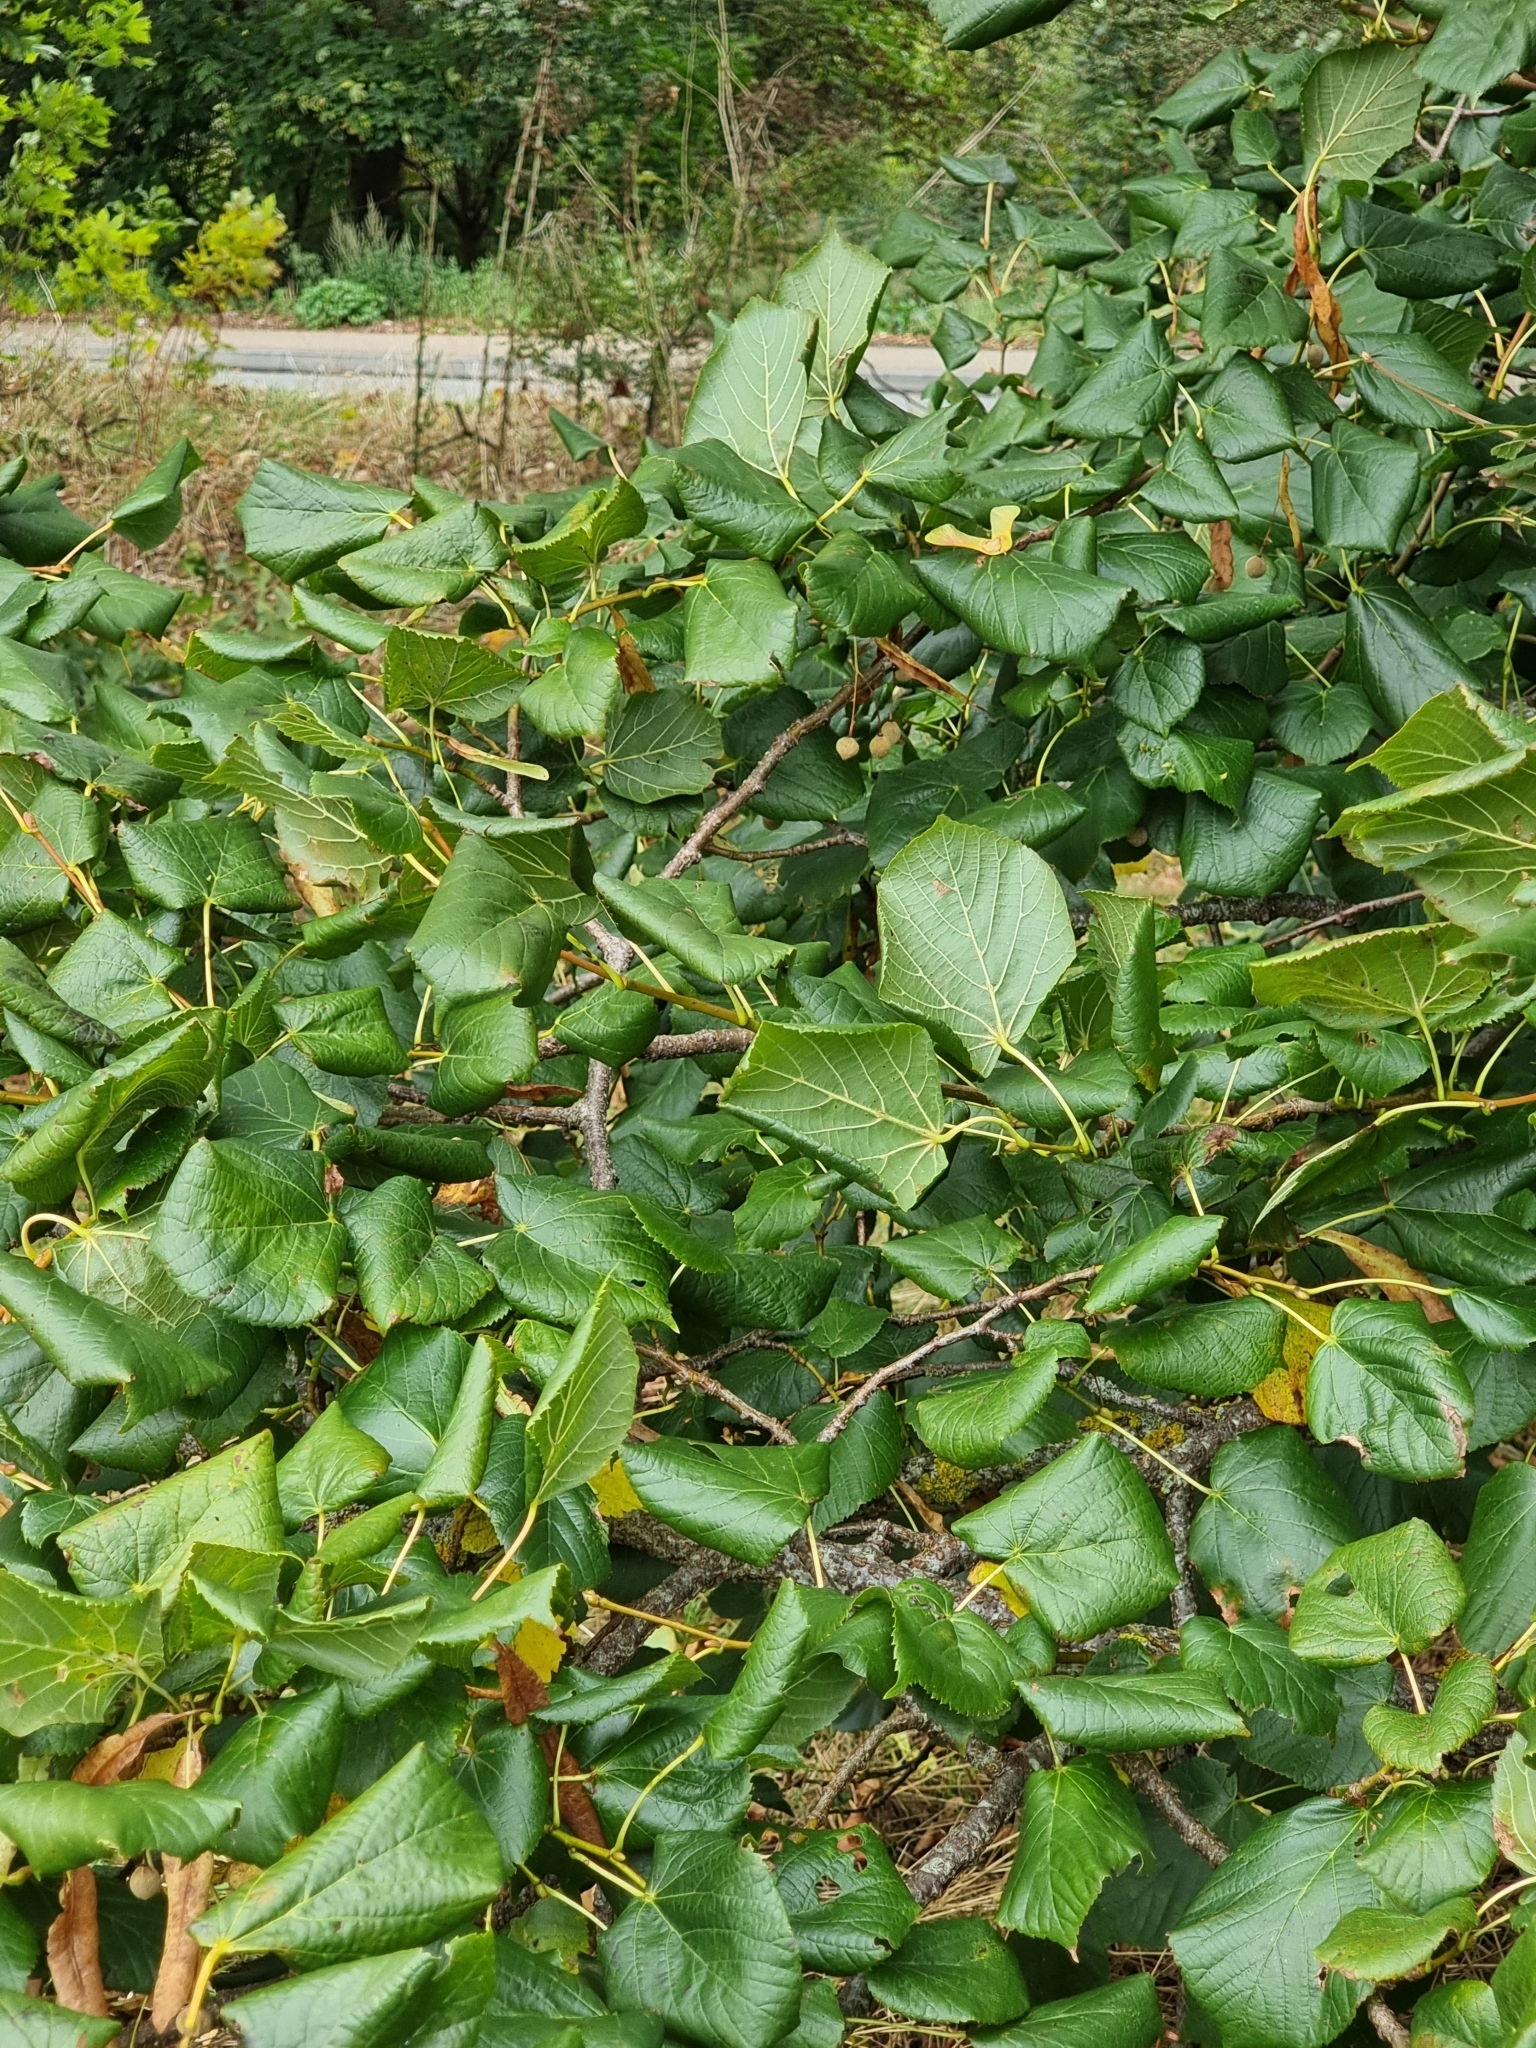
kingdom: Plantae
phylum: Tracheophyta
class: Magnoliopsida
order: Malvales
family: Malvaceae
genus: Tilia
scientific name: Tilia platyphyllos
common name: Large-leaved lime
